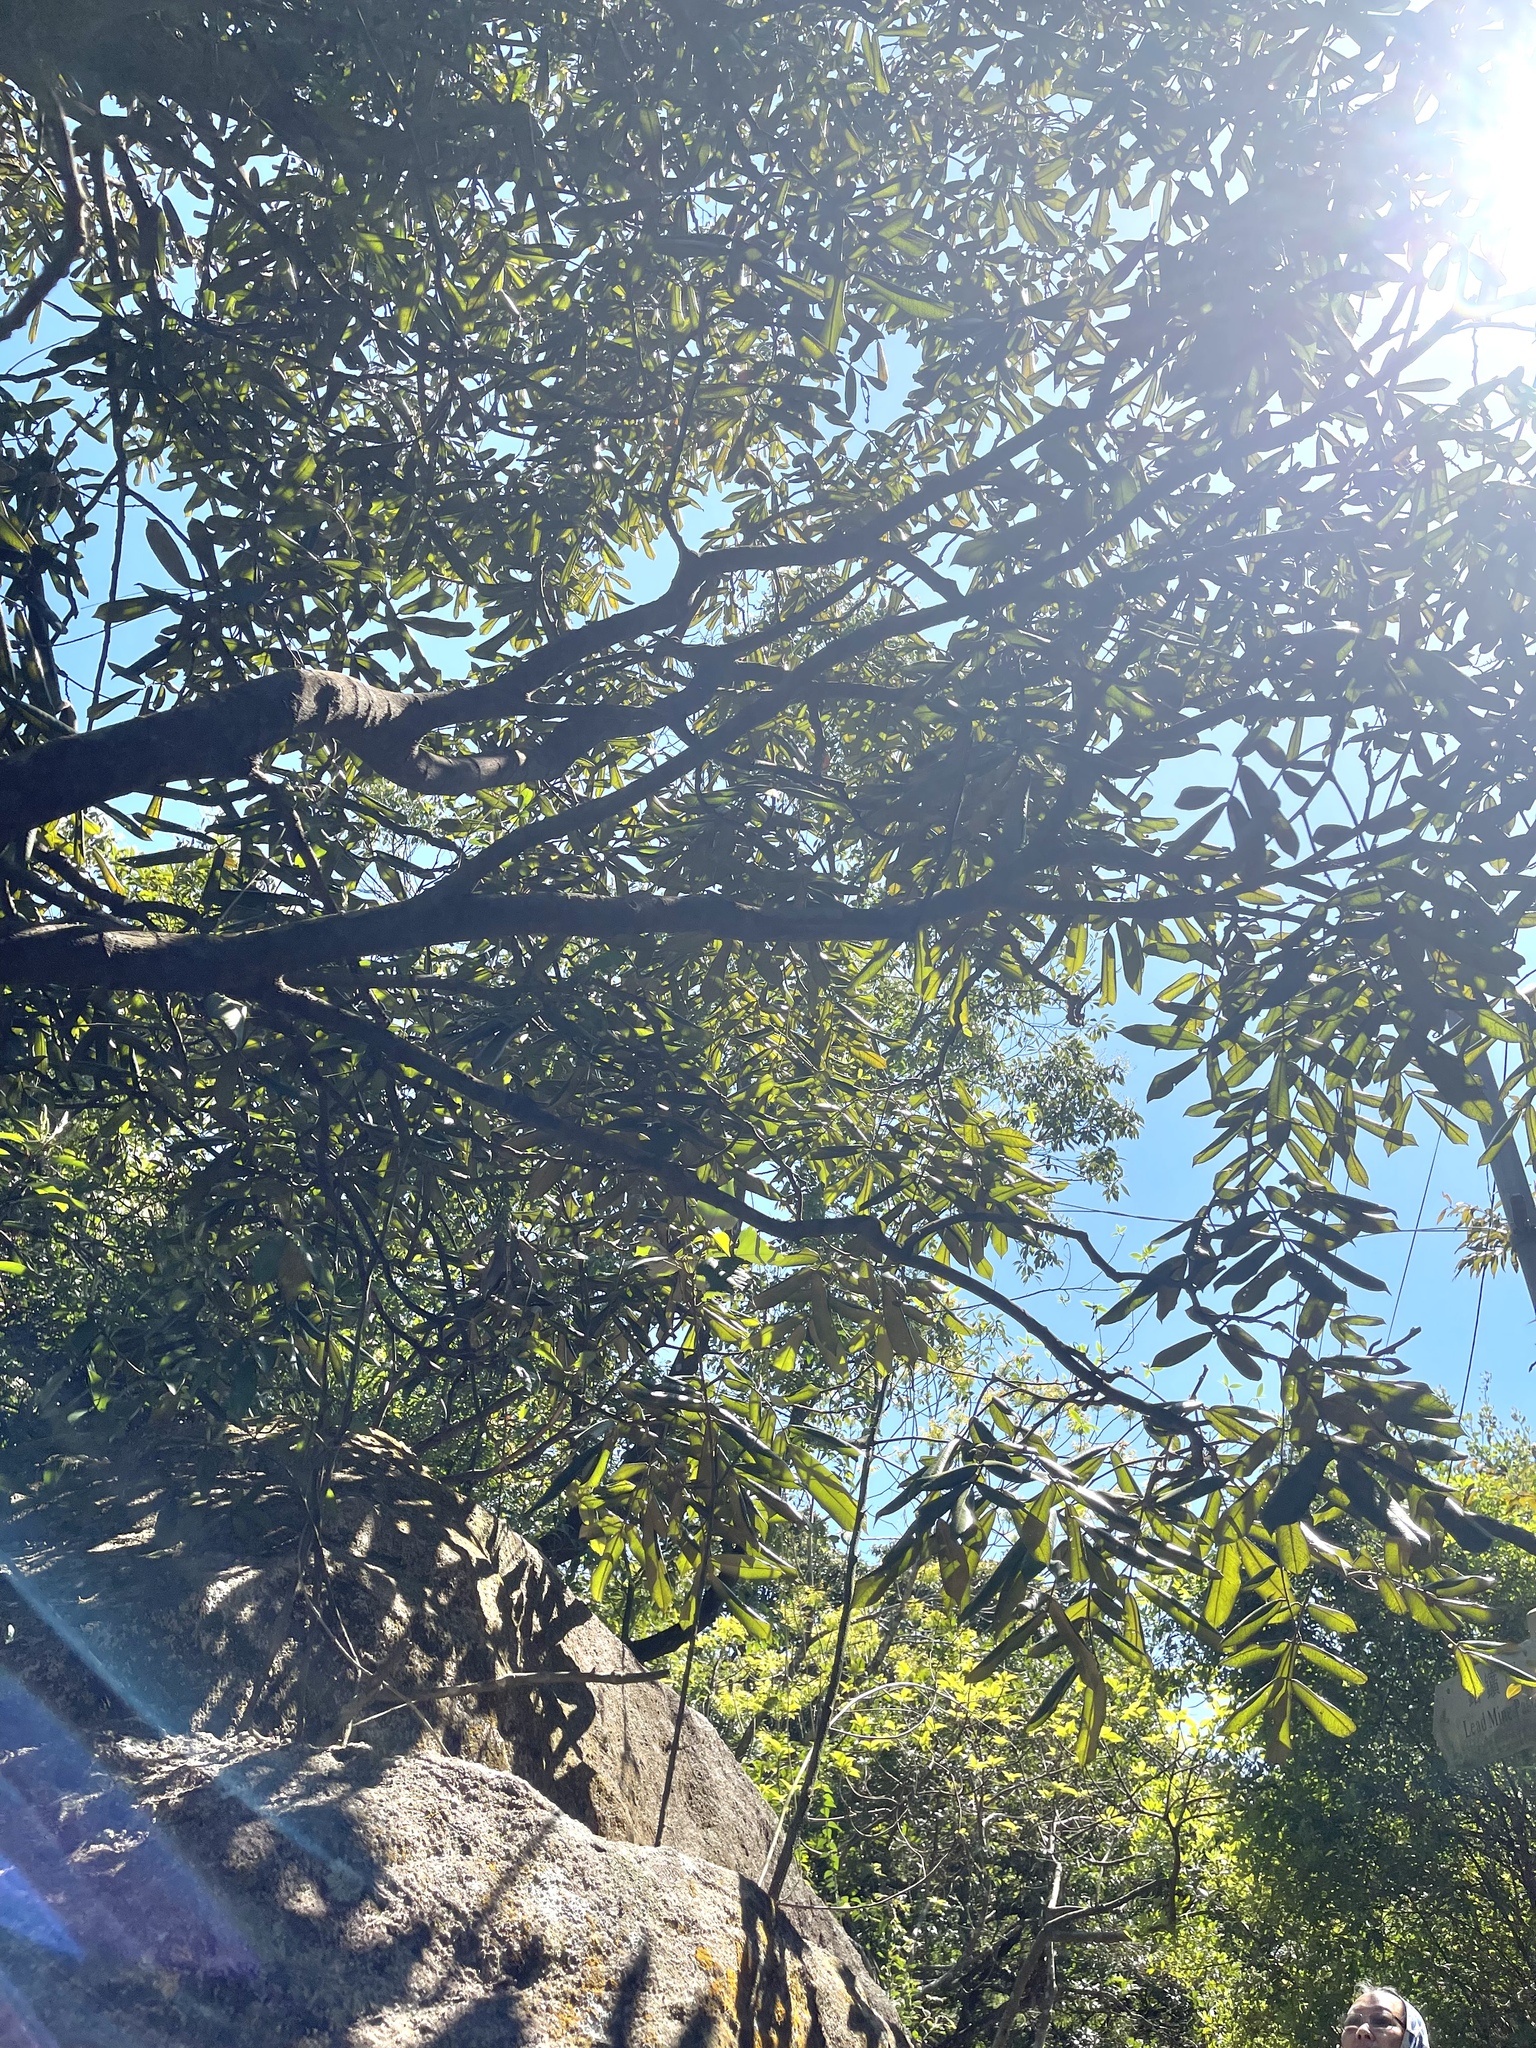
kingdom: Plantae
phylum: Tracheophyta
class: Magnoliopsida
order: Fabales
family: Fabaceae
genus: Ormosia
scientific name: Ormosia pachycarpa
